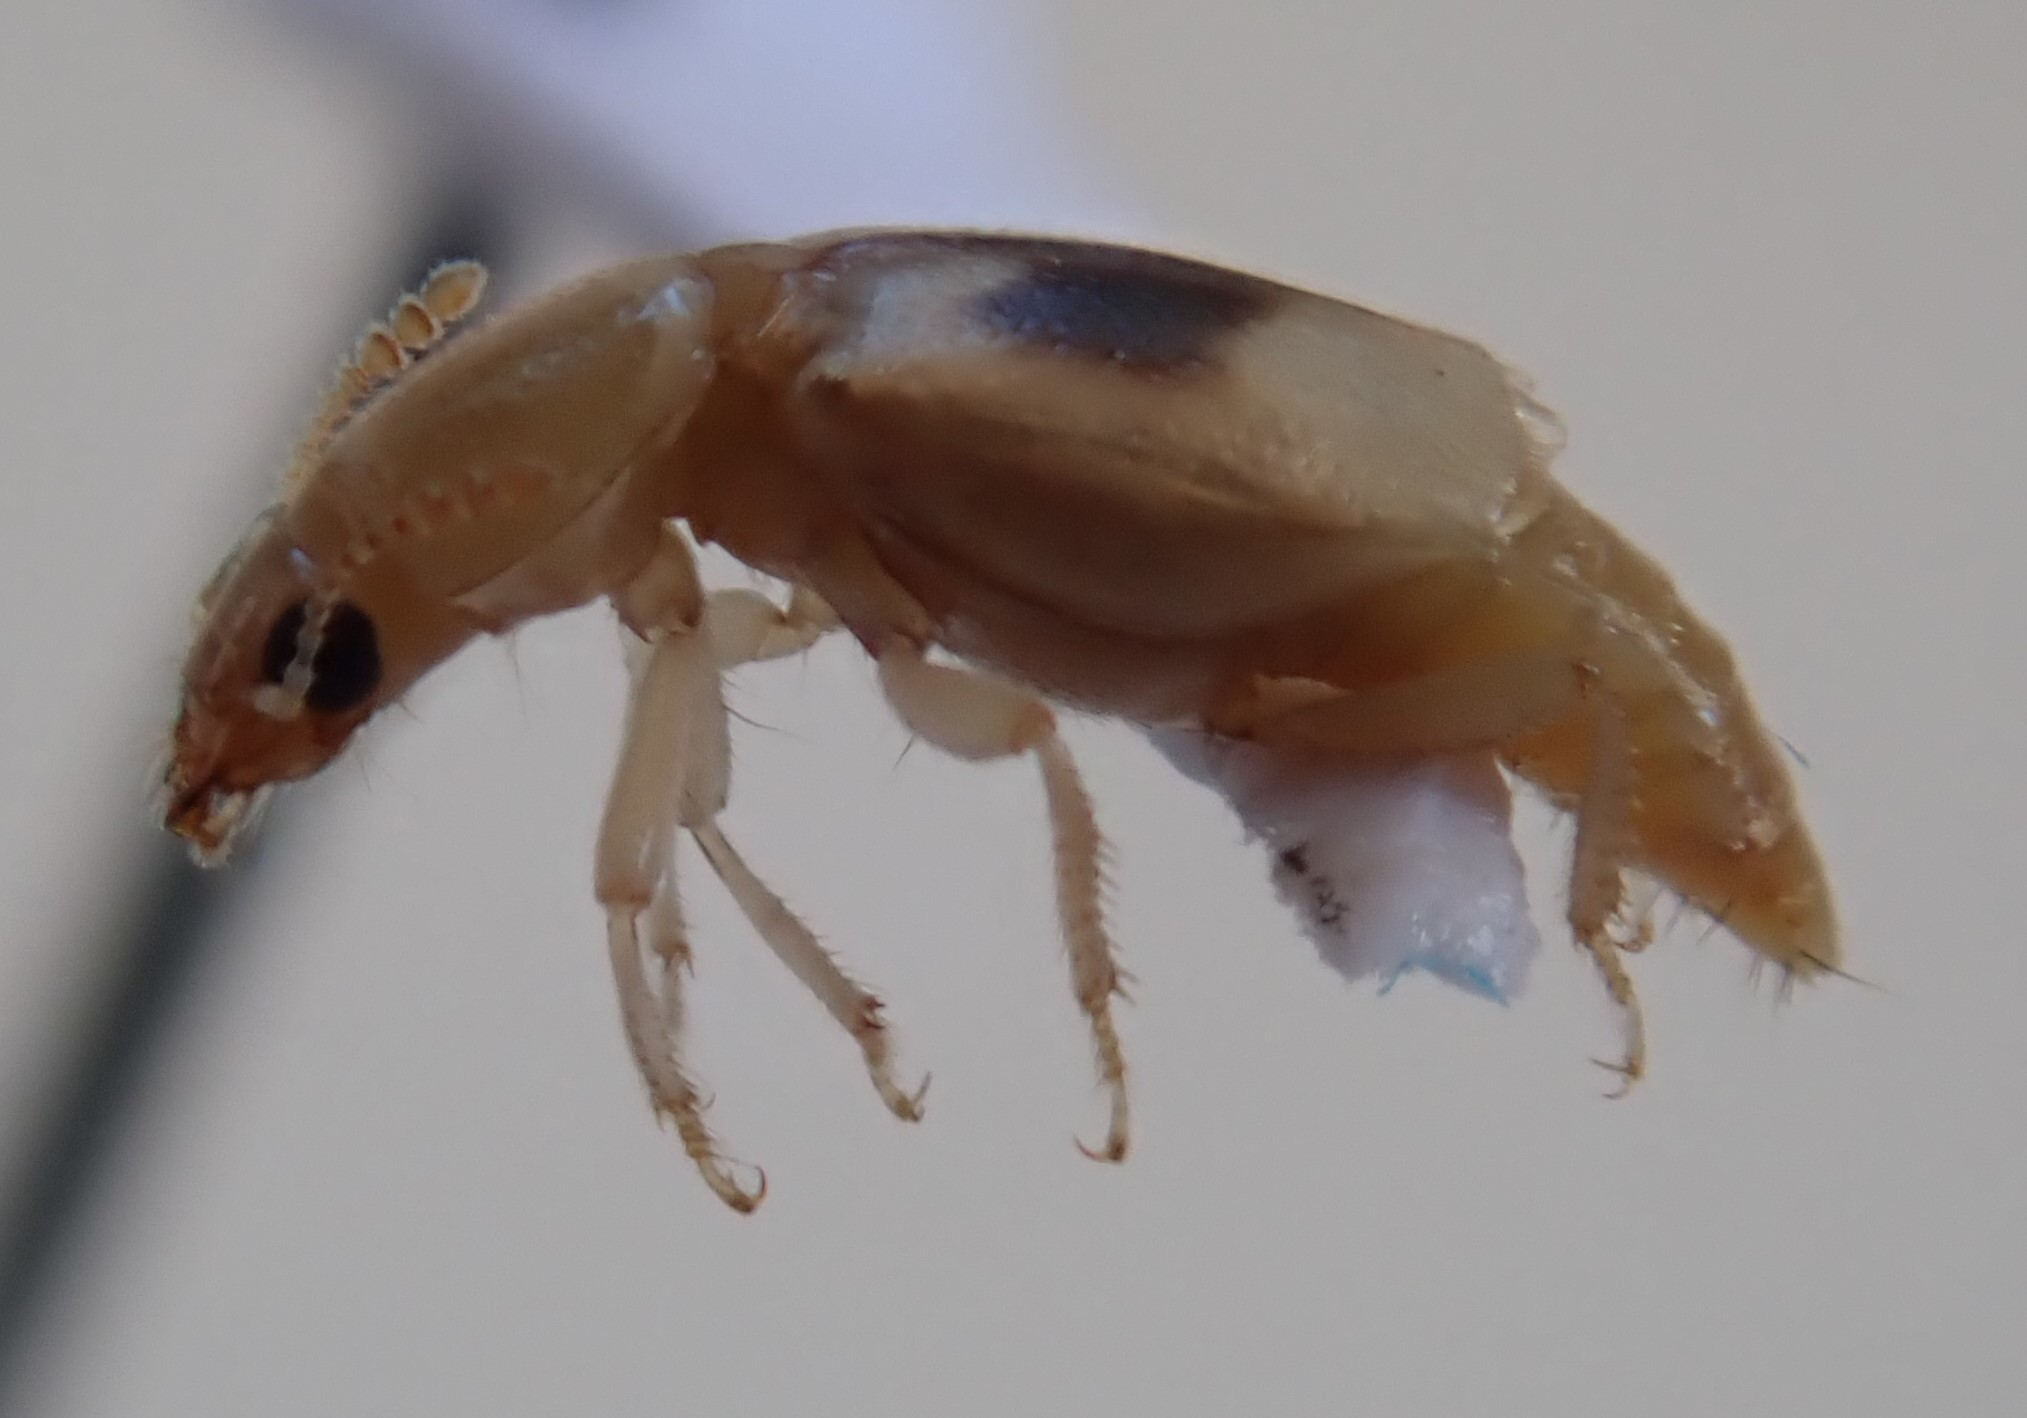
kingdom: Animalia
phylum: Arthropoda
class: Insecta
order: Coleoptera
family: Staphylinidae
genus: Sartallus
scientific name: Sartallus signatus
